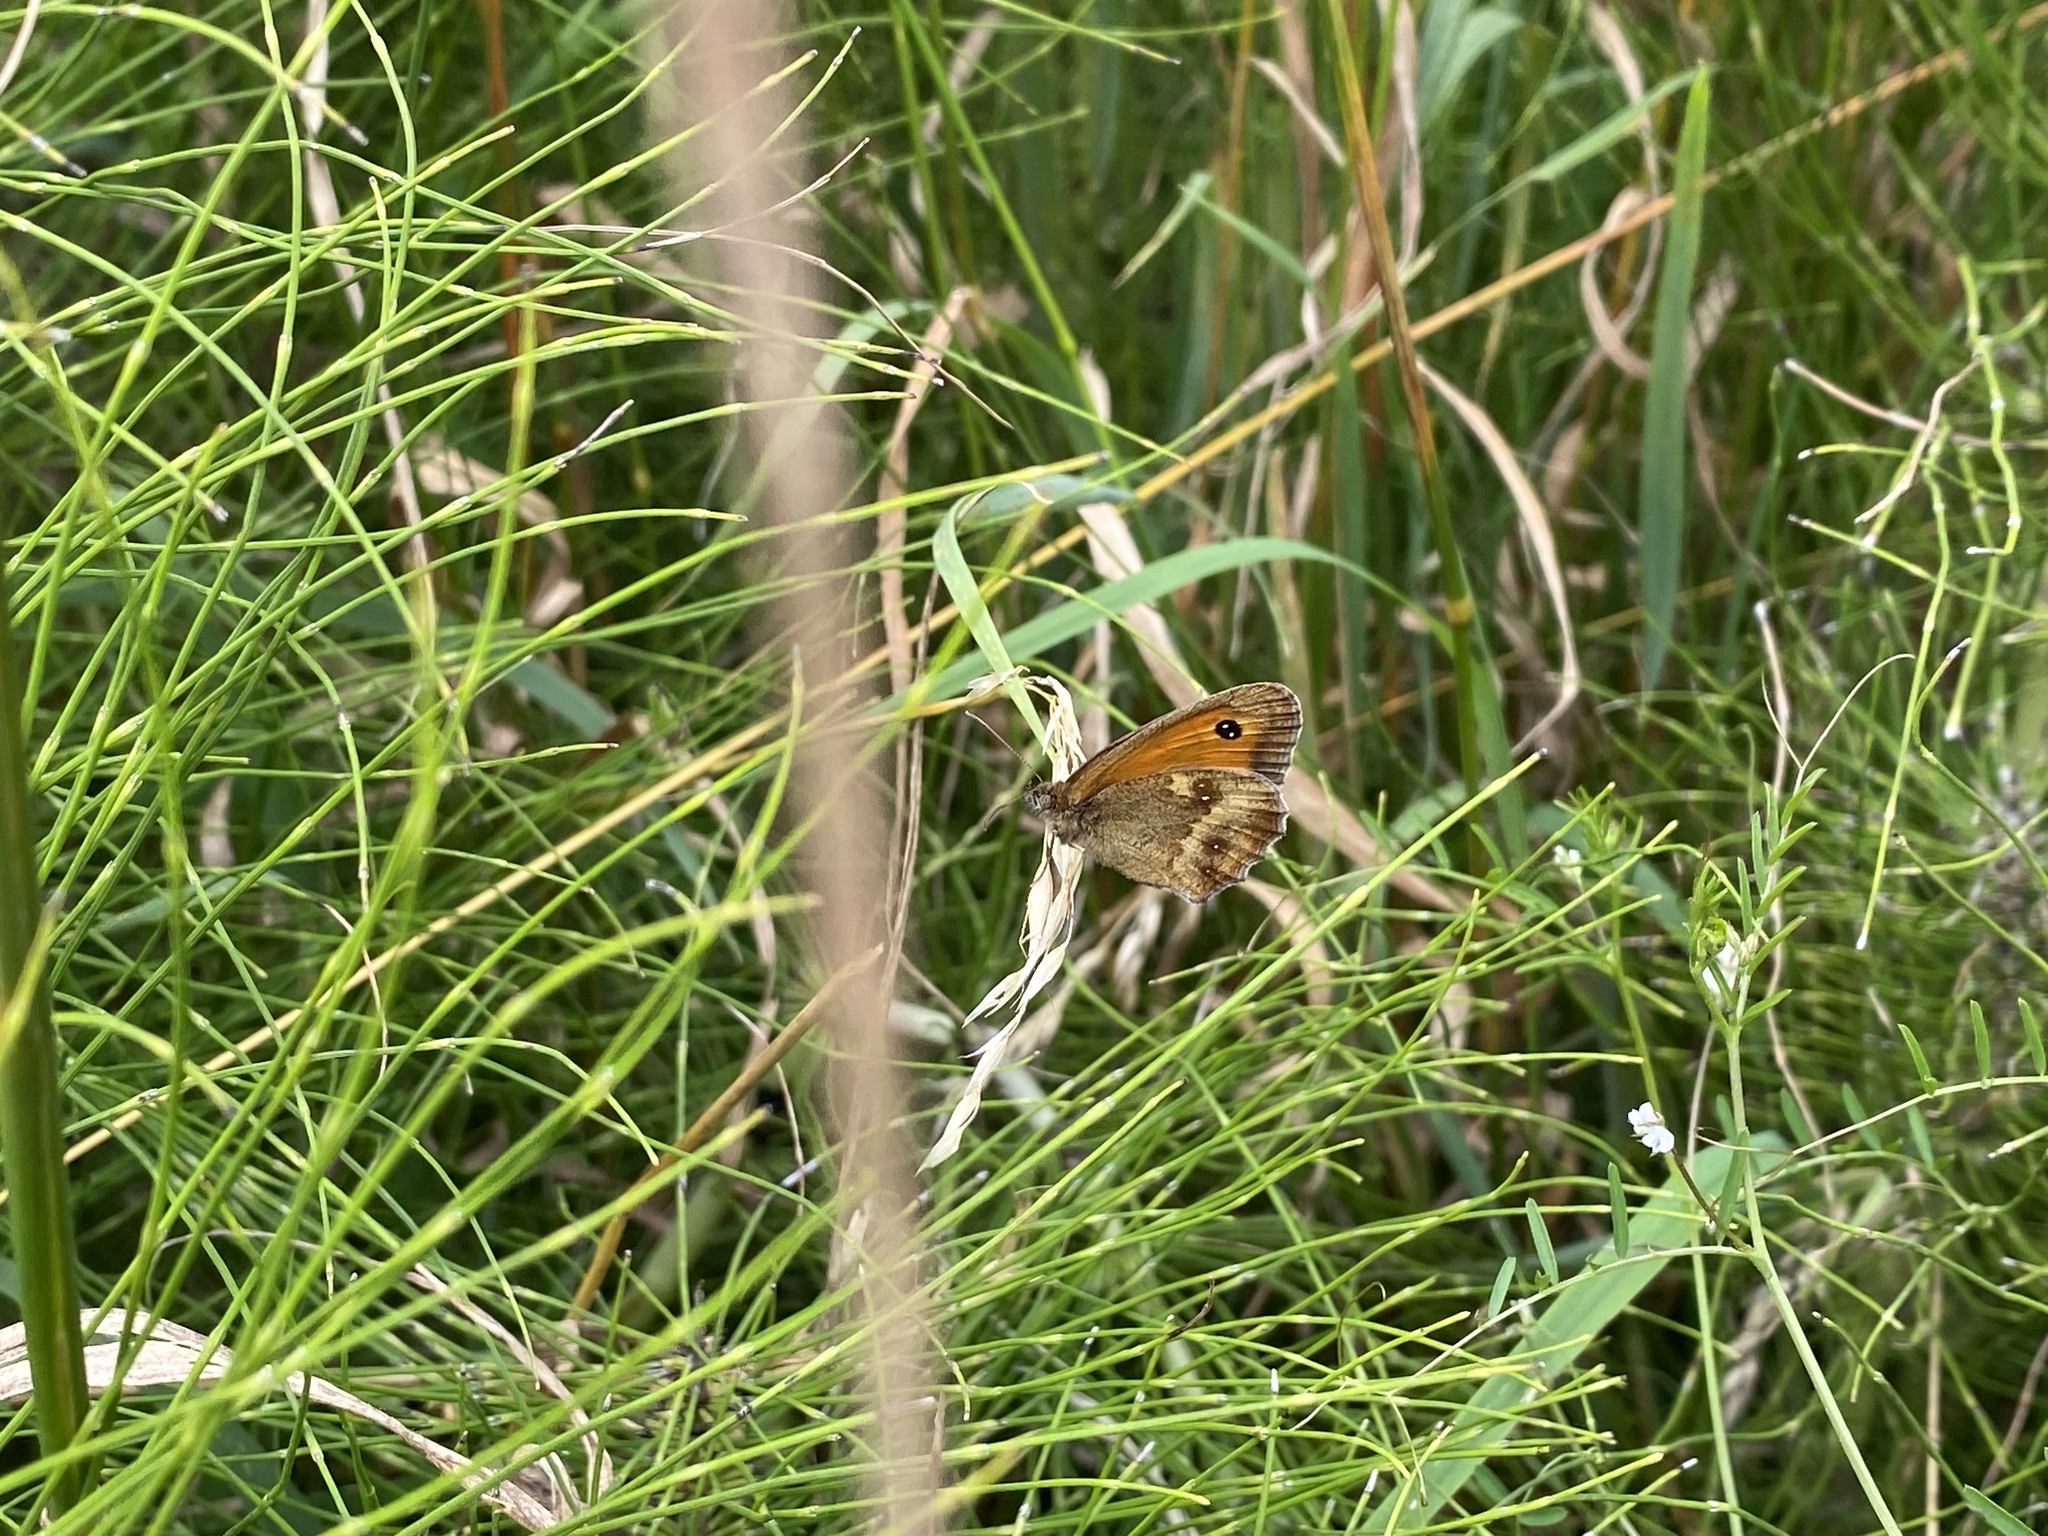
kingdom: Animalia
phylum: Arthropoda
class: Insecta
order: Lepidoptera
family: Nymphalidae
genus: Pyronia
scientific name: Pyronia tithonus
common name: Gatekeeper
